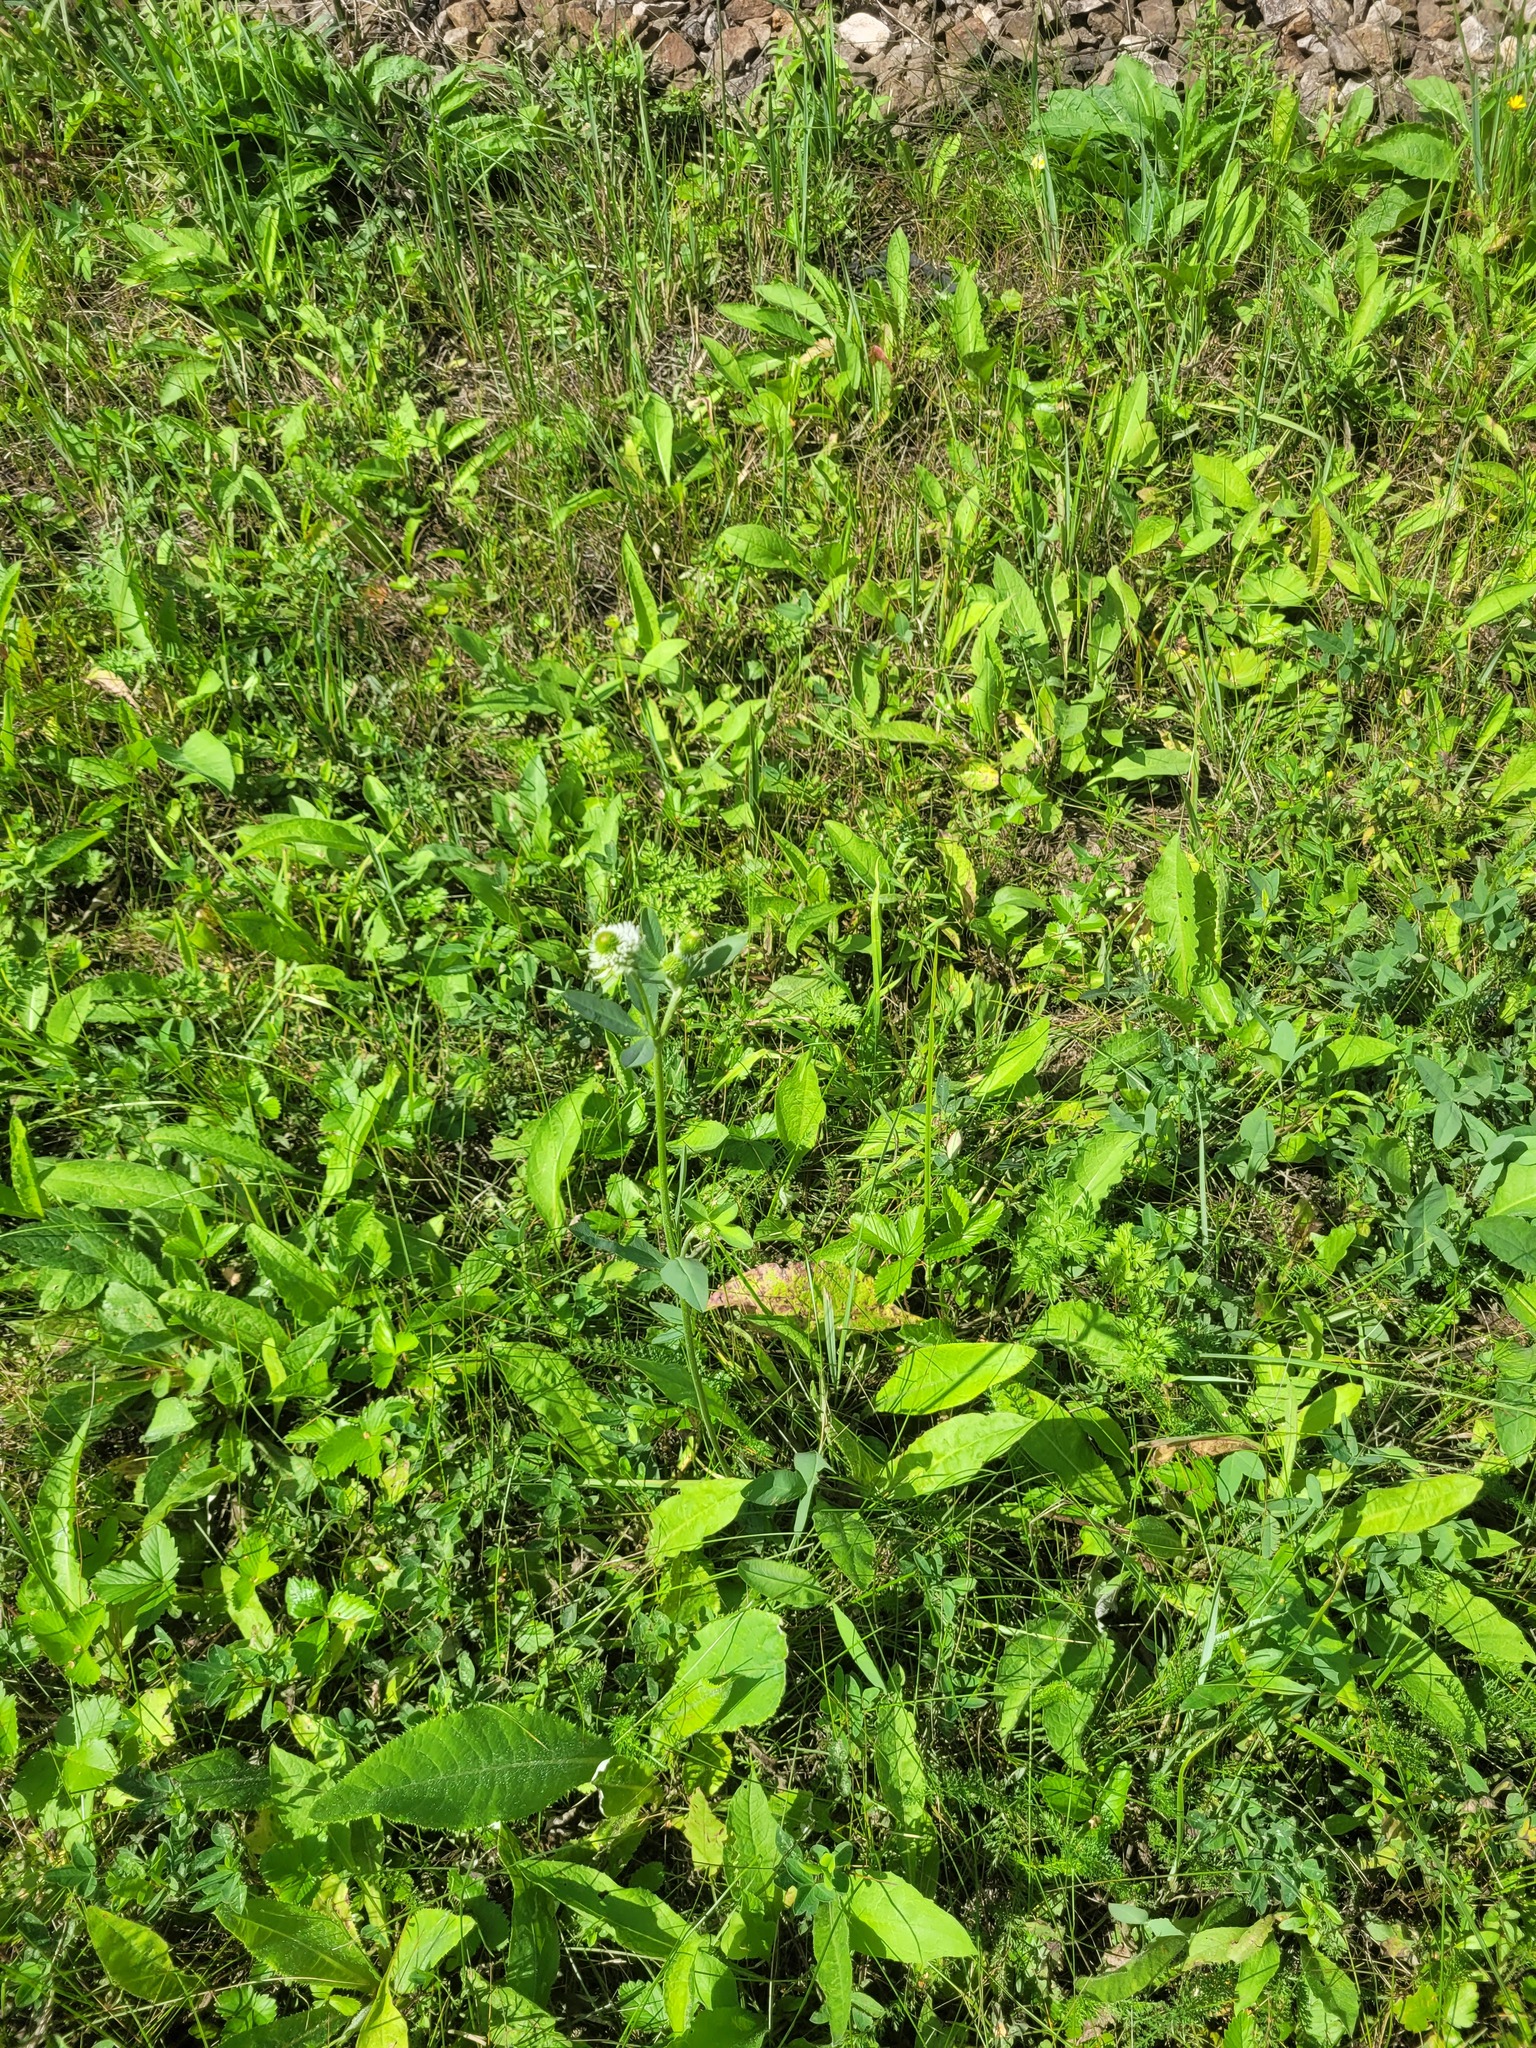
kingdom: Plantae
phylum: Tracheophyta
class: Magnoliopsida
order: Fabales
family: Fabaceae
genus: Trifolium
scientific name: Trifolium montanum
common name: Mountain clover
